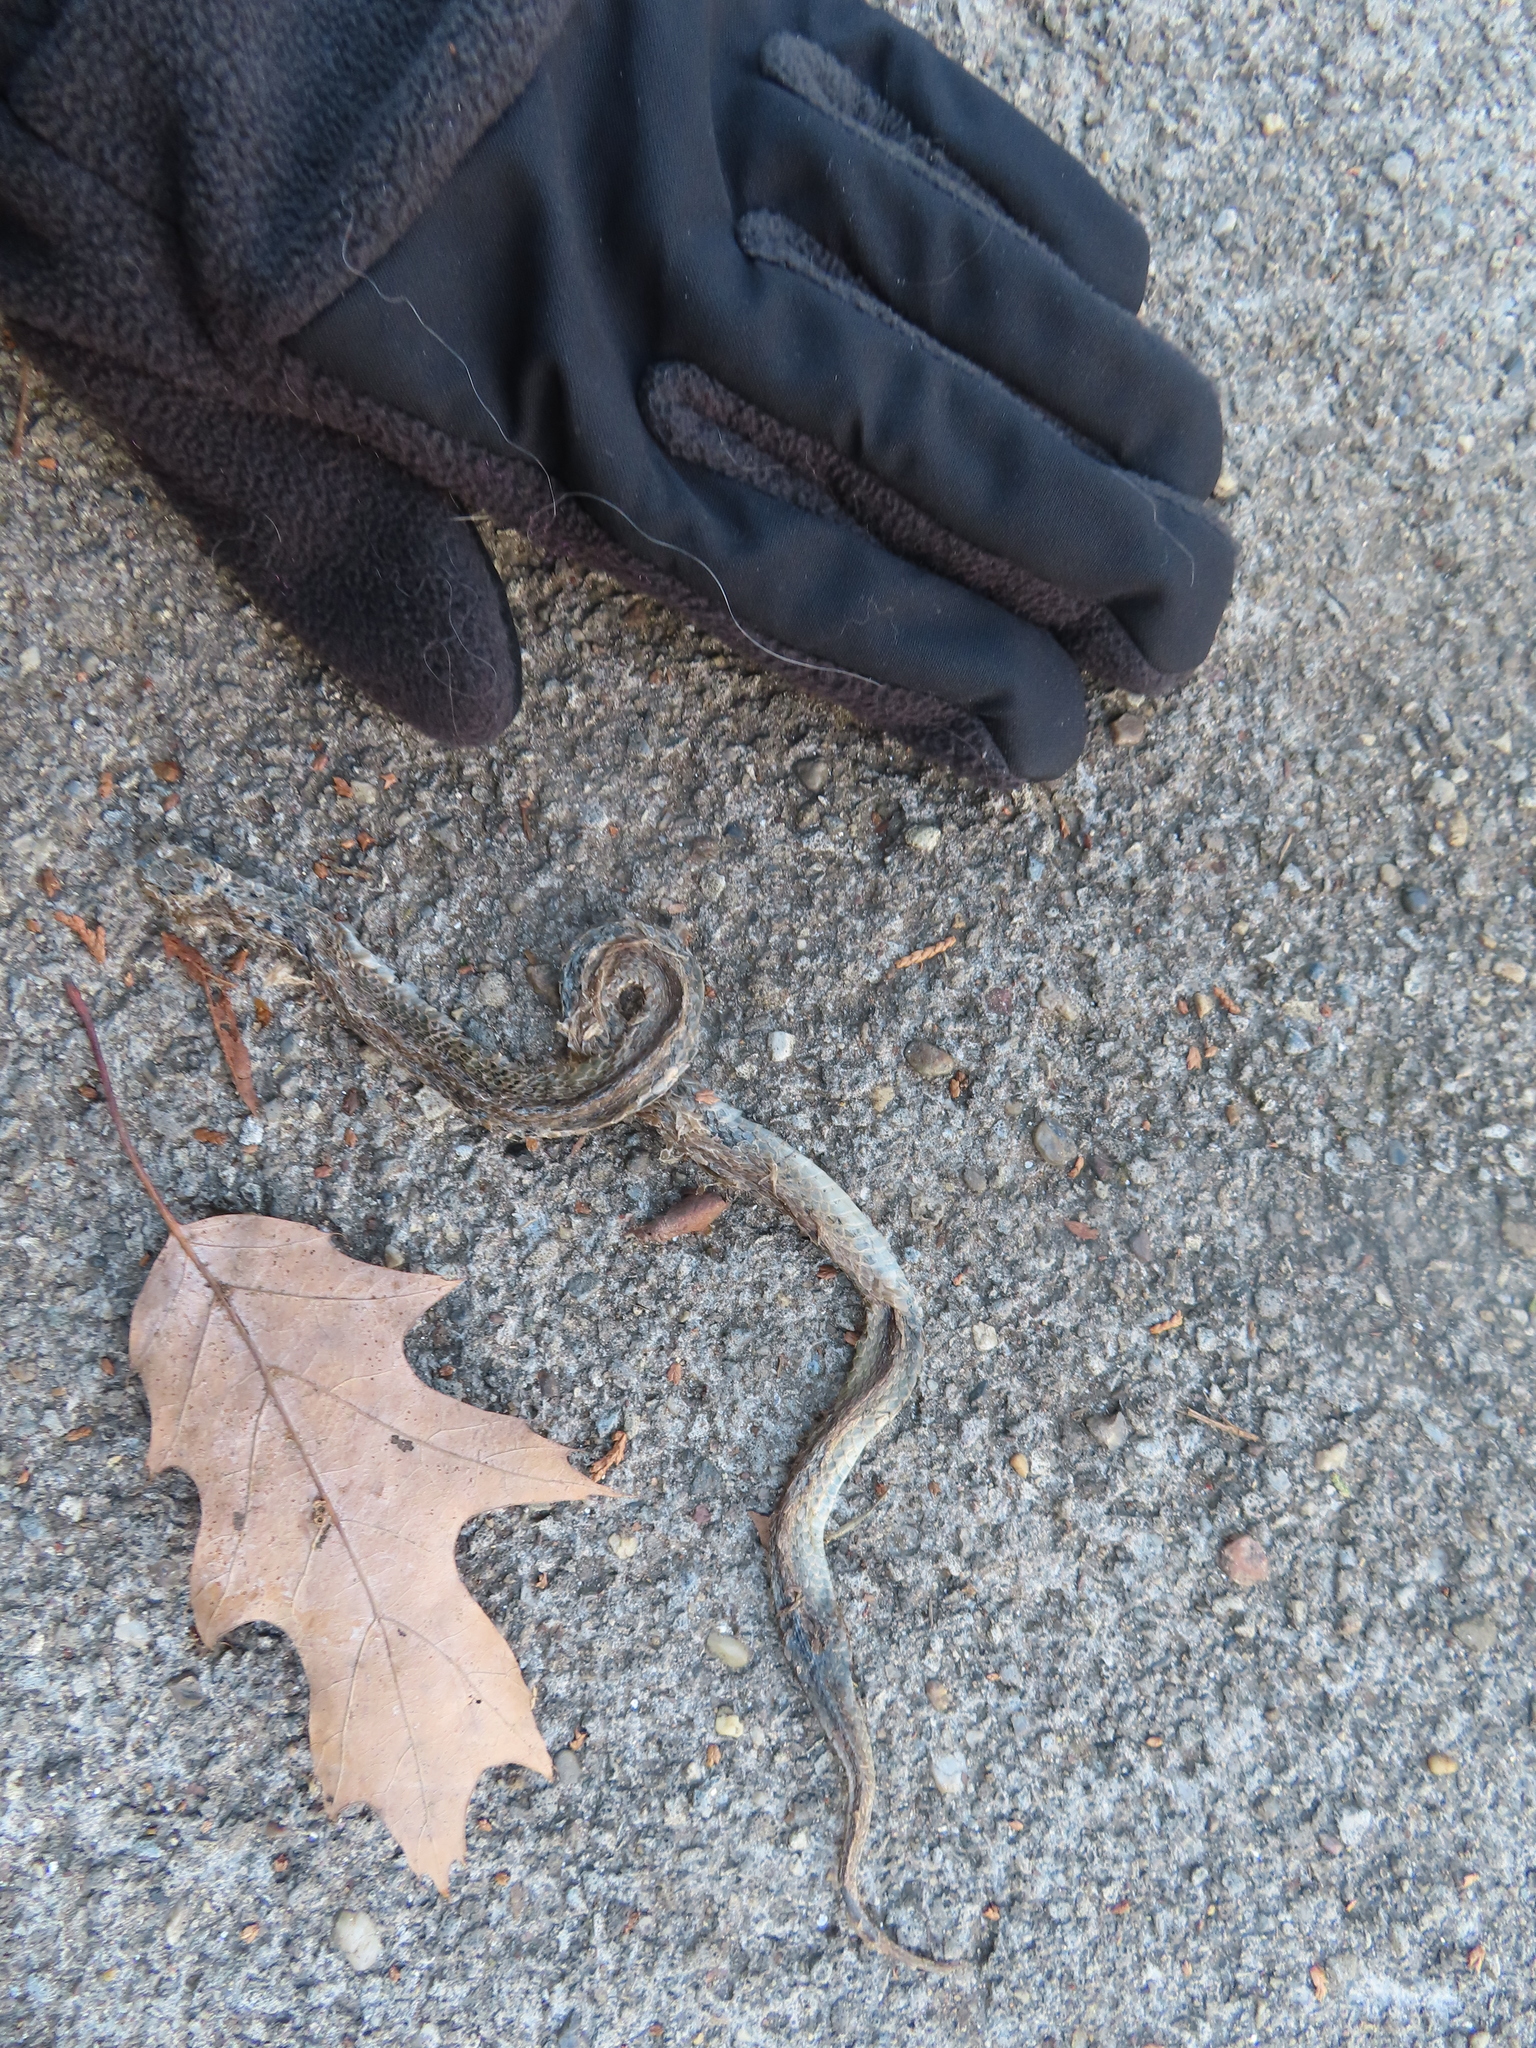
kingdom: Animalia
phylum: Chordata
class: Squamata
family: Colubridae
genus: Storeria
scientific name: Storeria dekayi
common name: (dekay’s) brown snake
